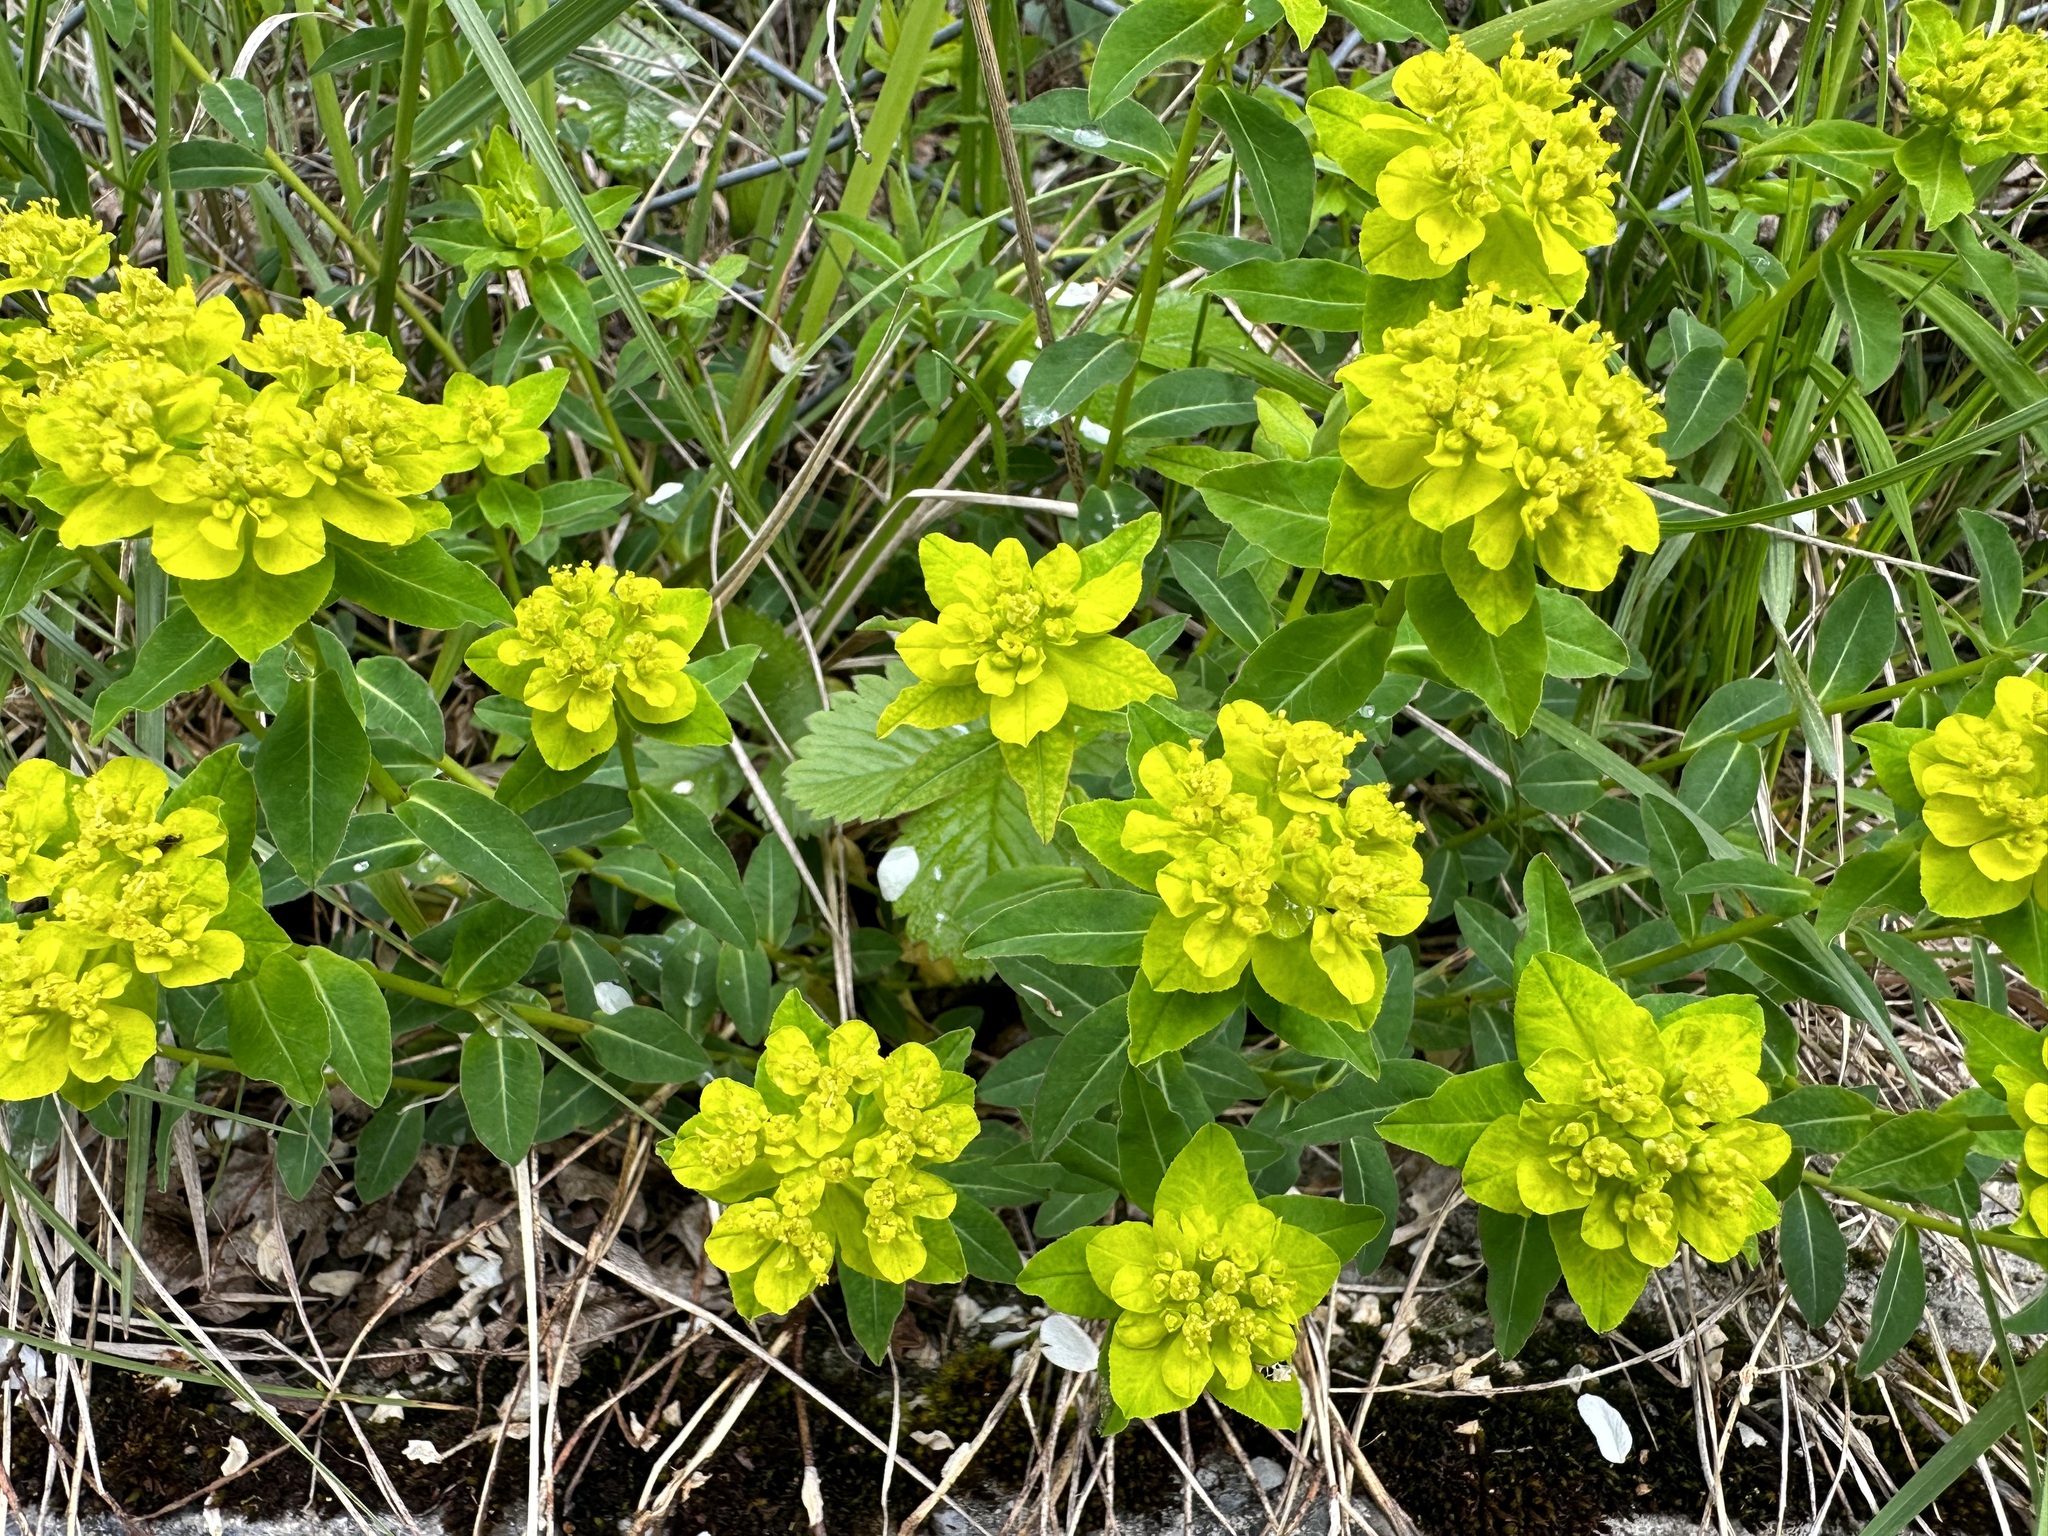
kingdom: Plantae
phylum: Tracheophyta
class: Magnoliopsida
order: Malpighiales
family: Euphorbiaceae
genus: Euphorbia
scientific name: Euphorbia verrucosa
